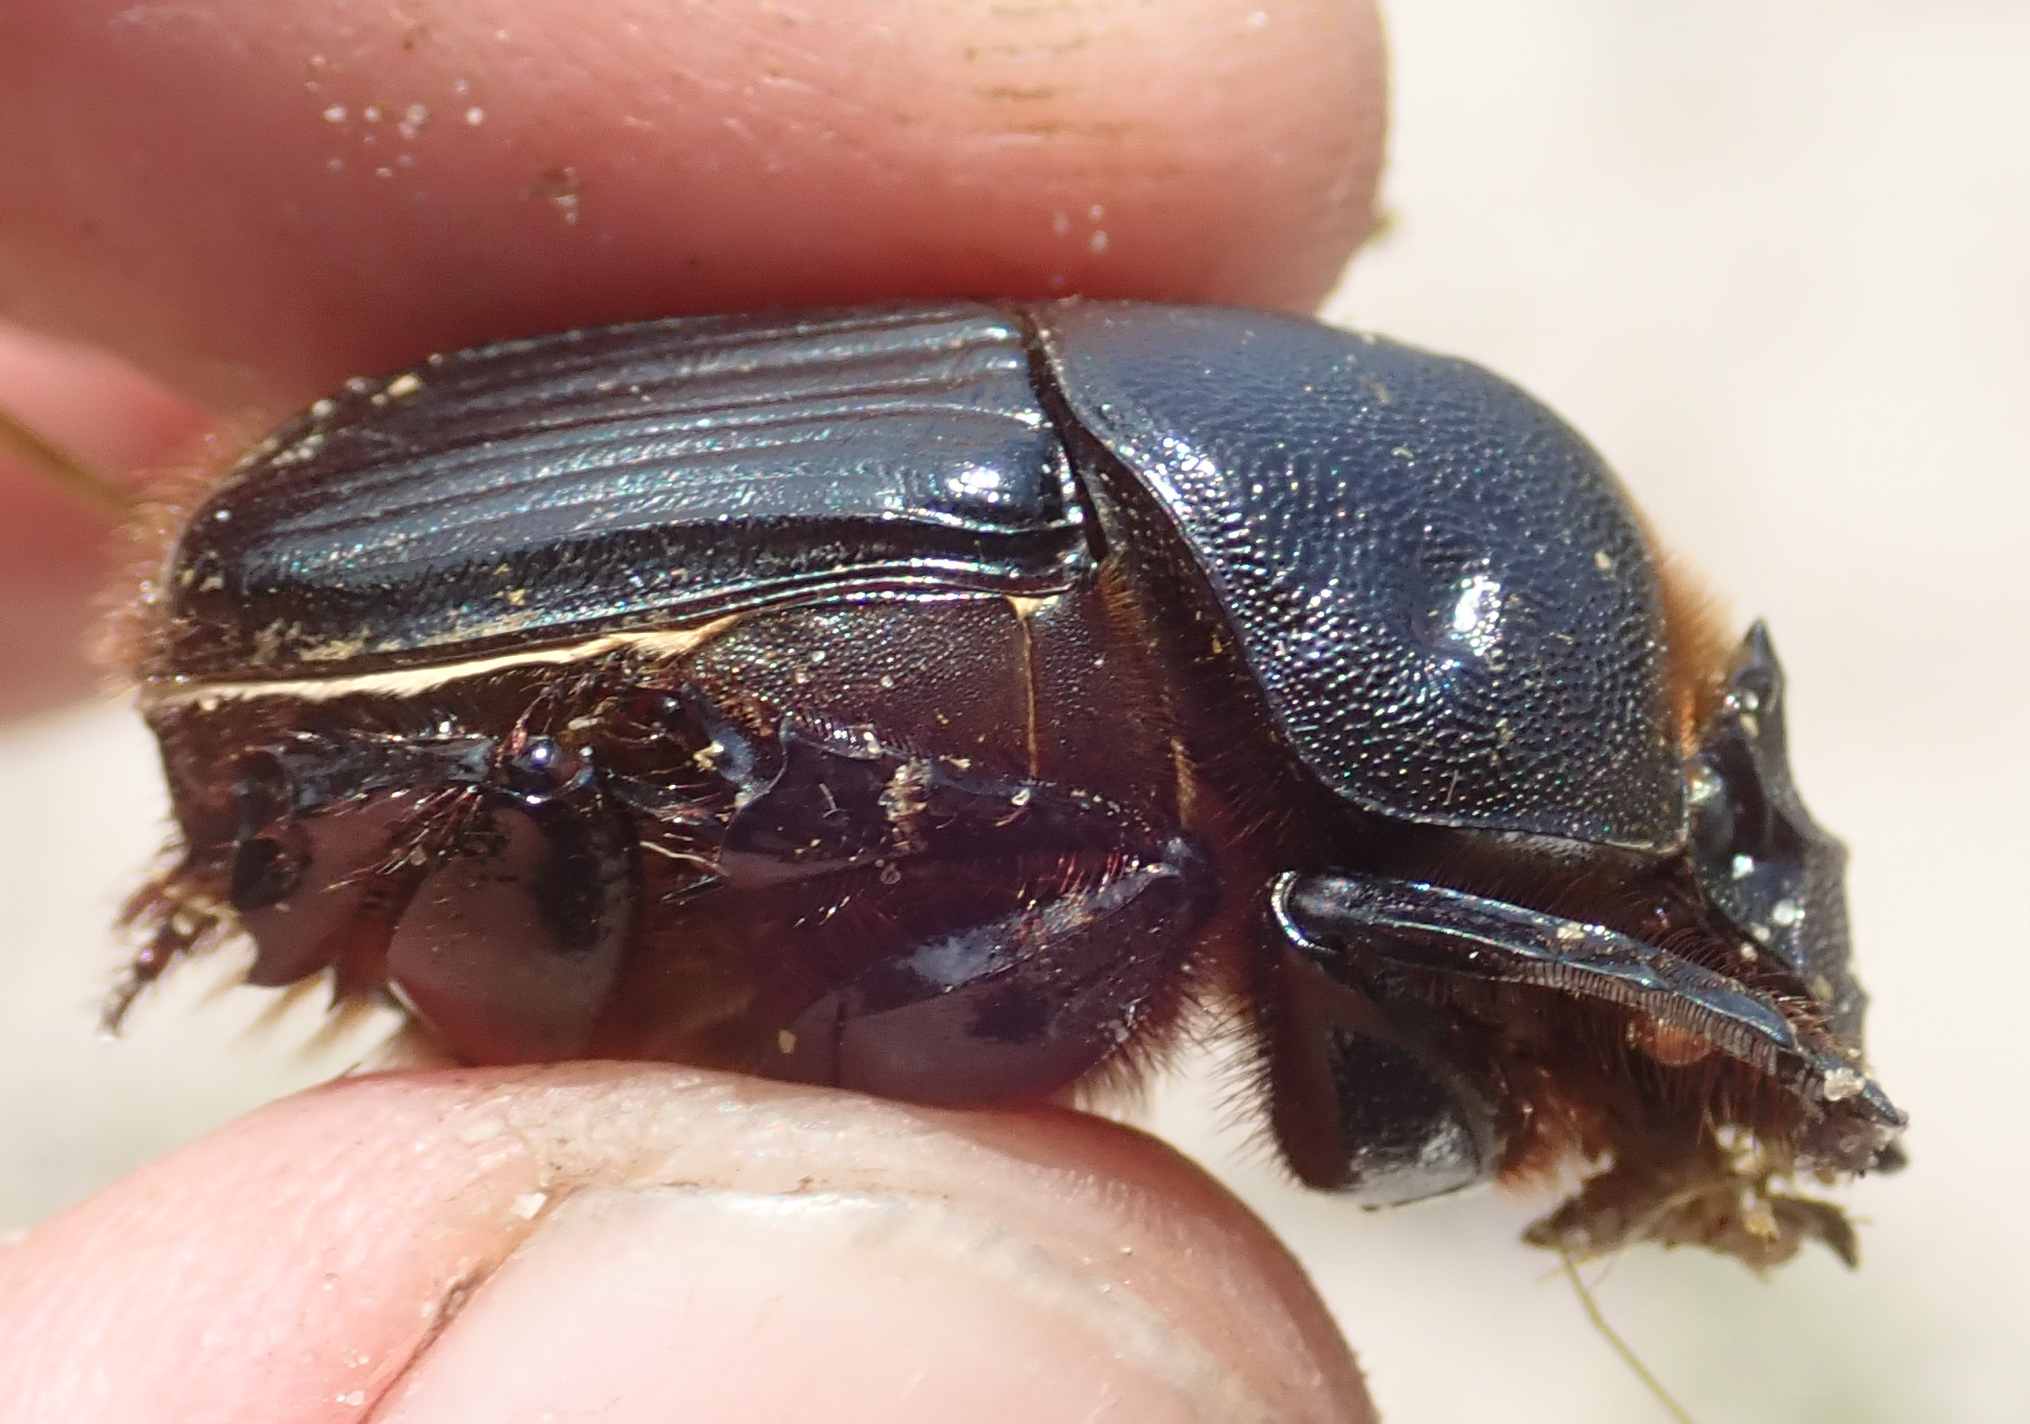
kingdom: Animalia
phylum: Arthropoda
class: Insecta
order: Coleoptera
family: Scarabaeidae
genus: Heteronitis
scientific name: Heteronitis castelnaui
